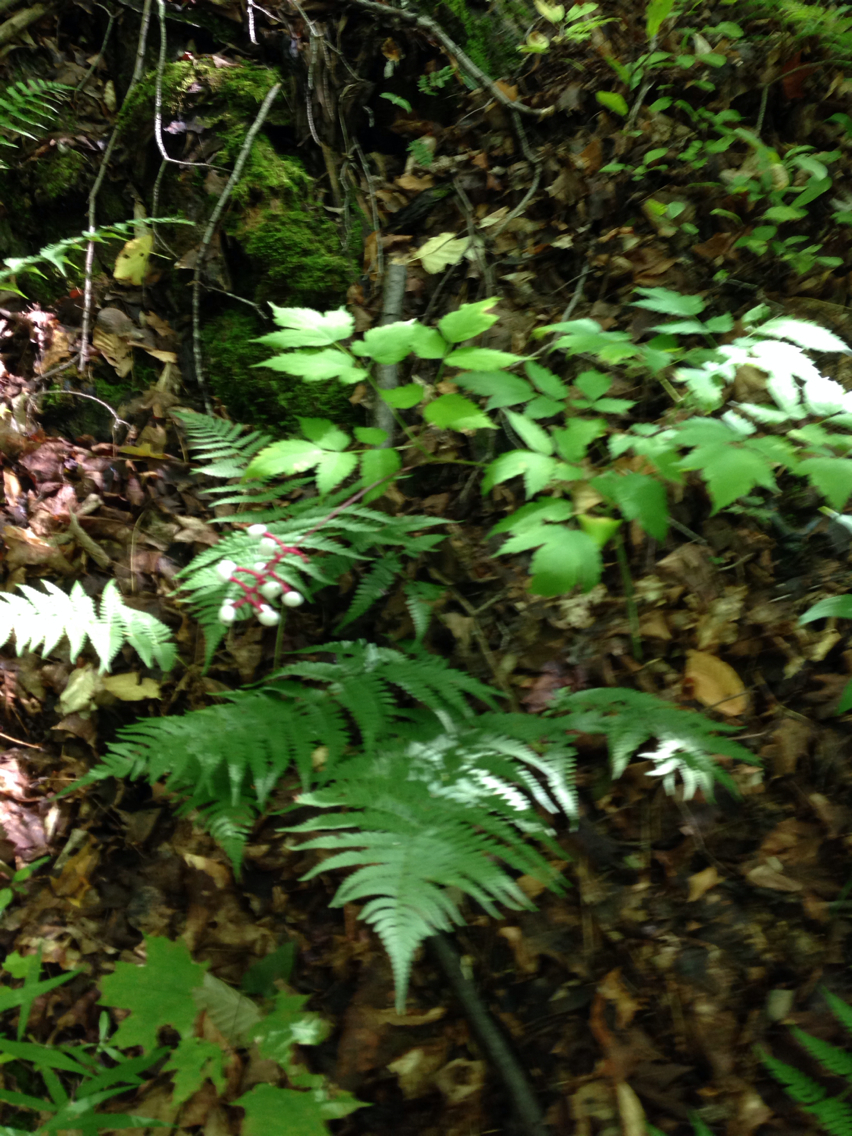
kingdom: Plantae
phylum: Tracheophyta
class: Magnoliopsida
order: Ranunculales
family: Ranunculaceae
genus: Actaea
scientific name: Actaea pachypoda
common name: Doll's-eyes
